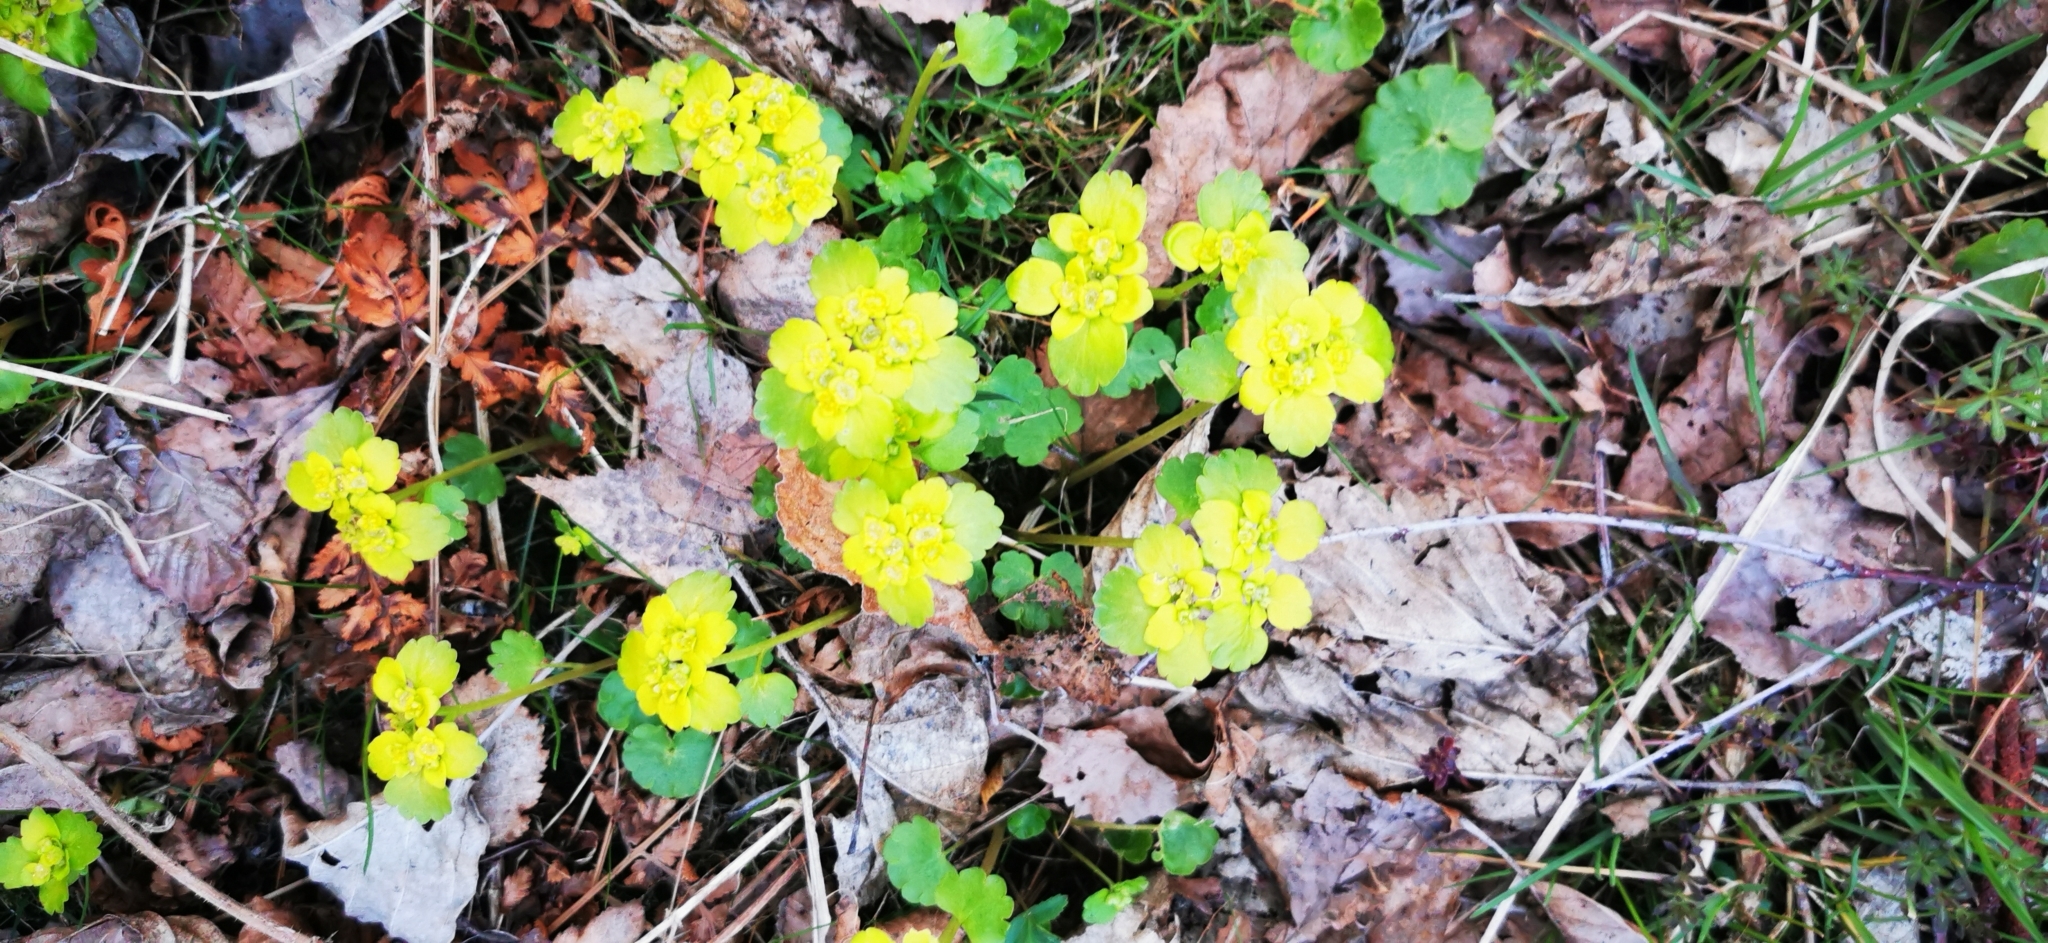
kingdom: Plantae
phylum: Tracheophyta
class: Magnoliopsida
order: Saxifragales
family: Saxifragaceae
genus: Chrysosplenium
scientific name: Chrysosplenium alternifolium
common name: Alternate-leaved golden-saxifrage
